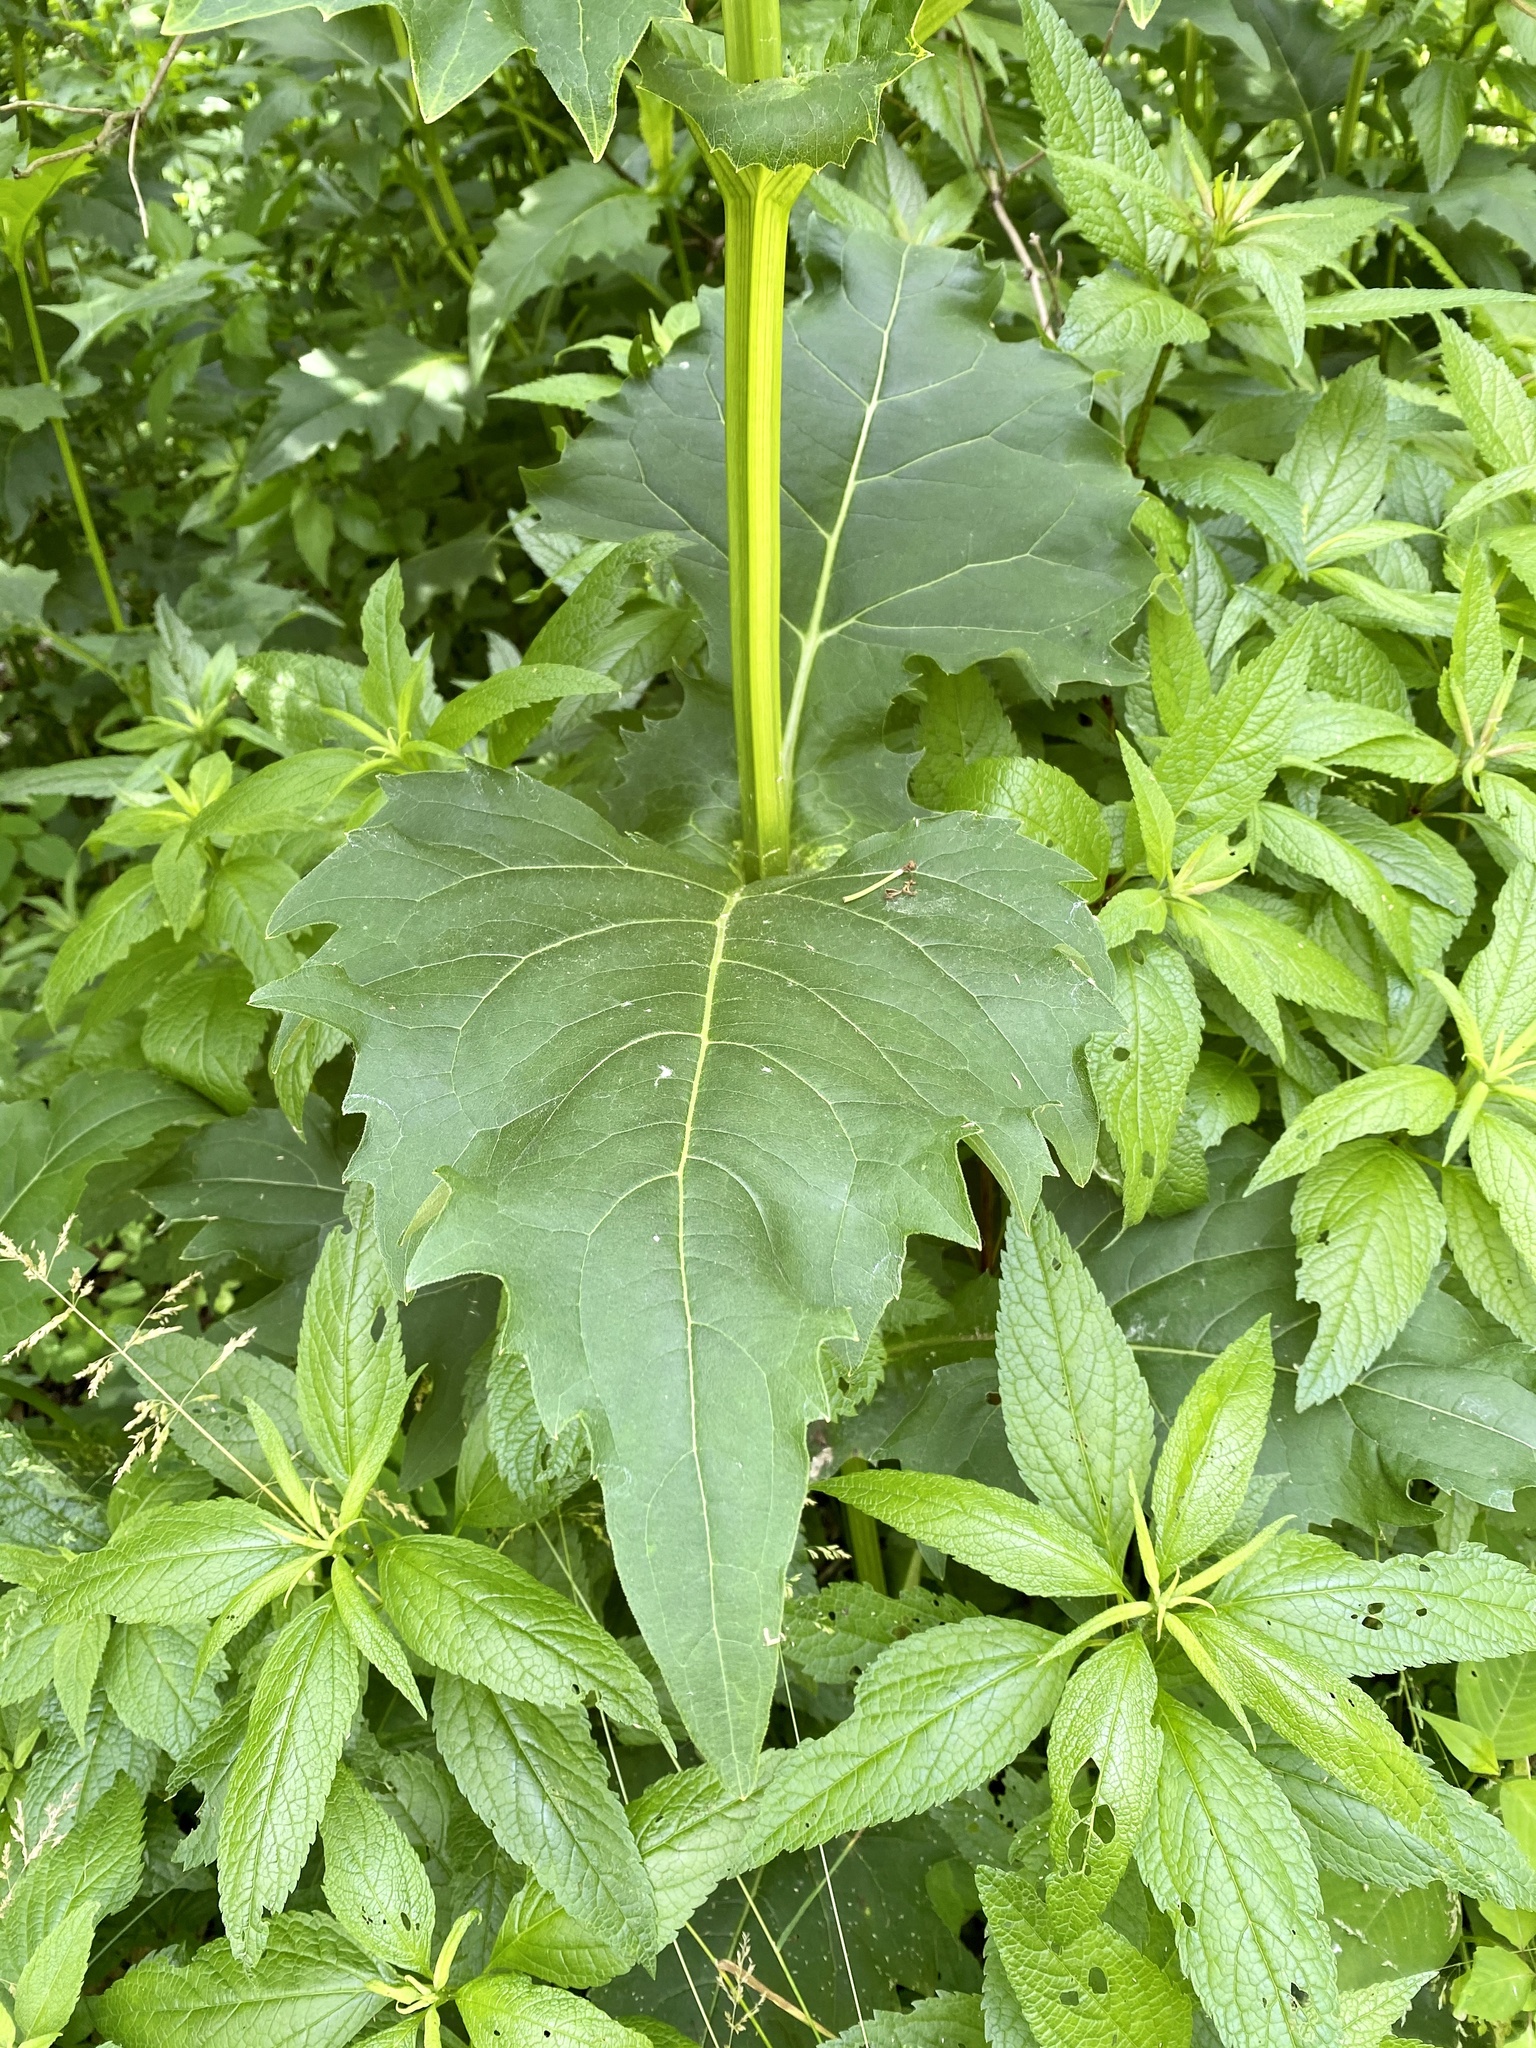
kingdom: Plantae
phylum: Tracheophyta
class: Magnoliopsida
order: Asterales
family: Asteraceae
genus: Silphium
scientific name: Silphium perfoliatum
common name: Cup-plant
